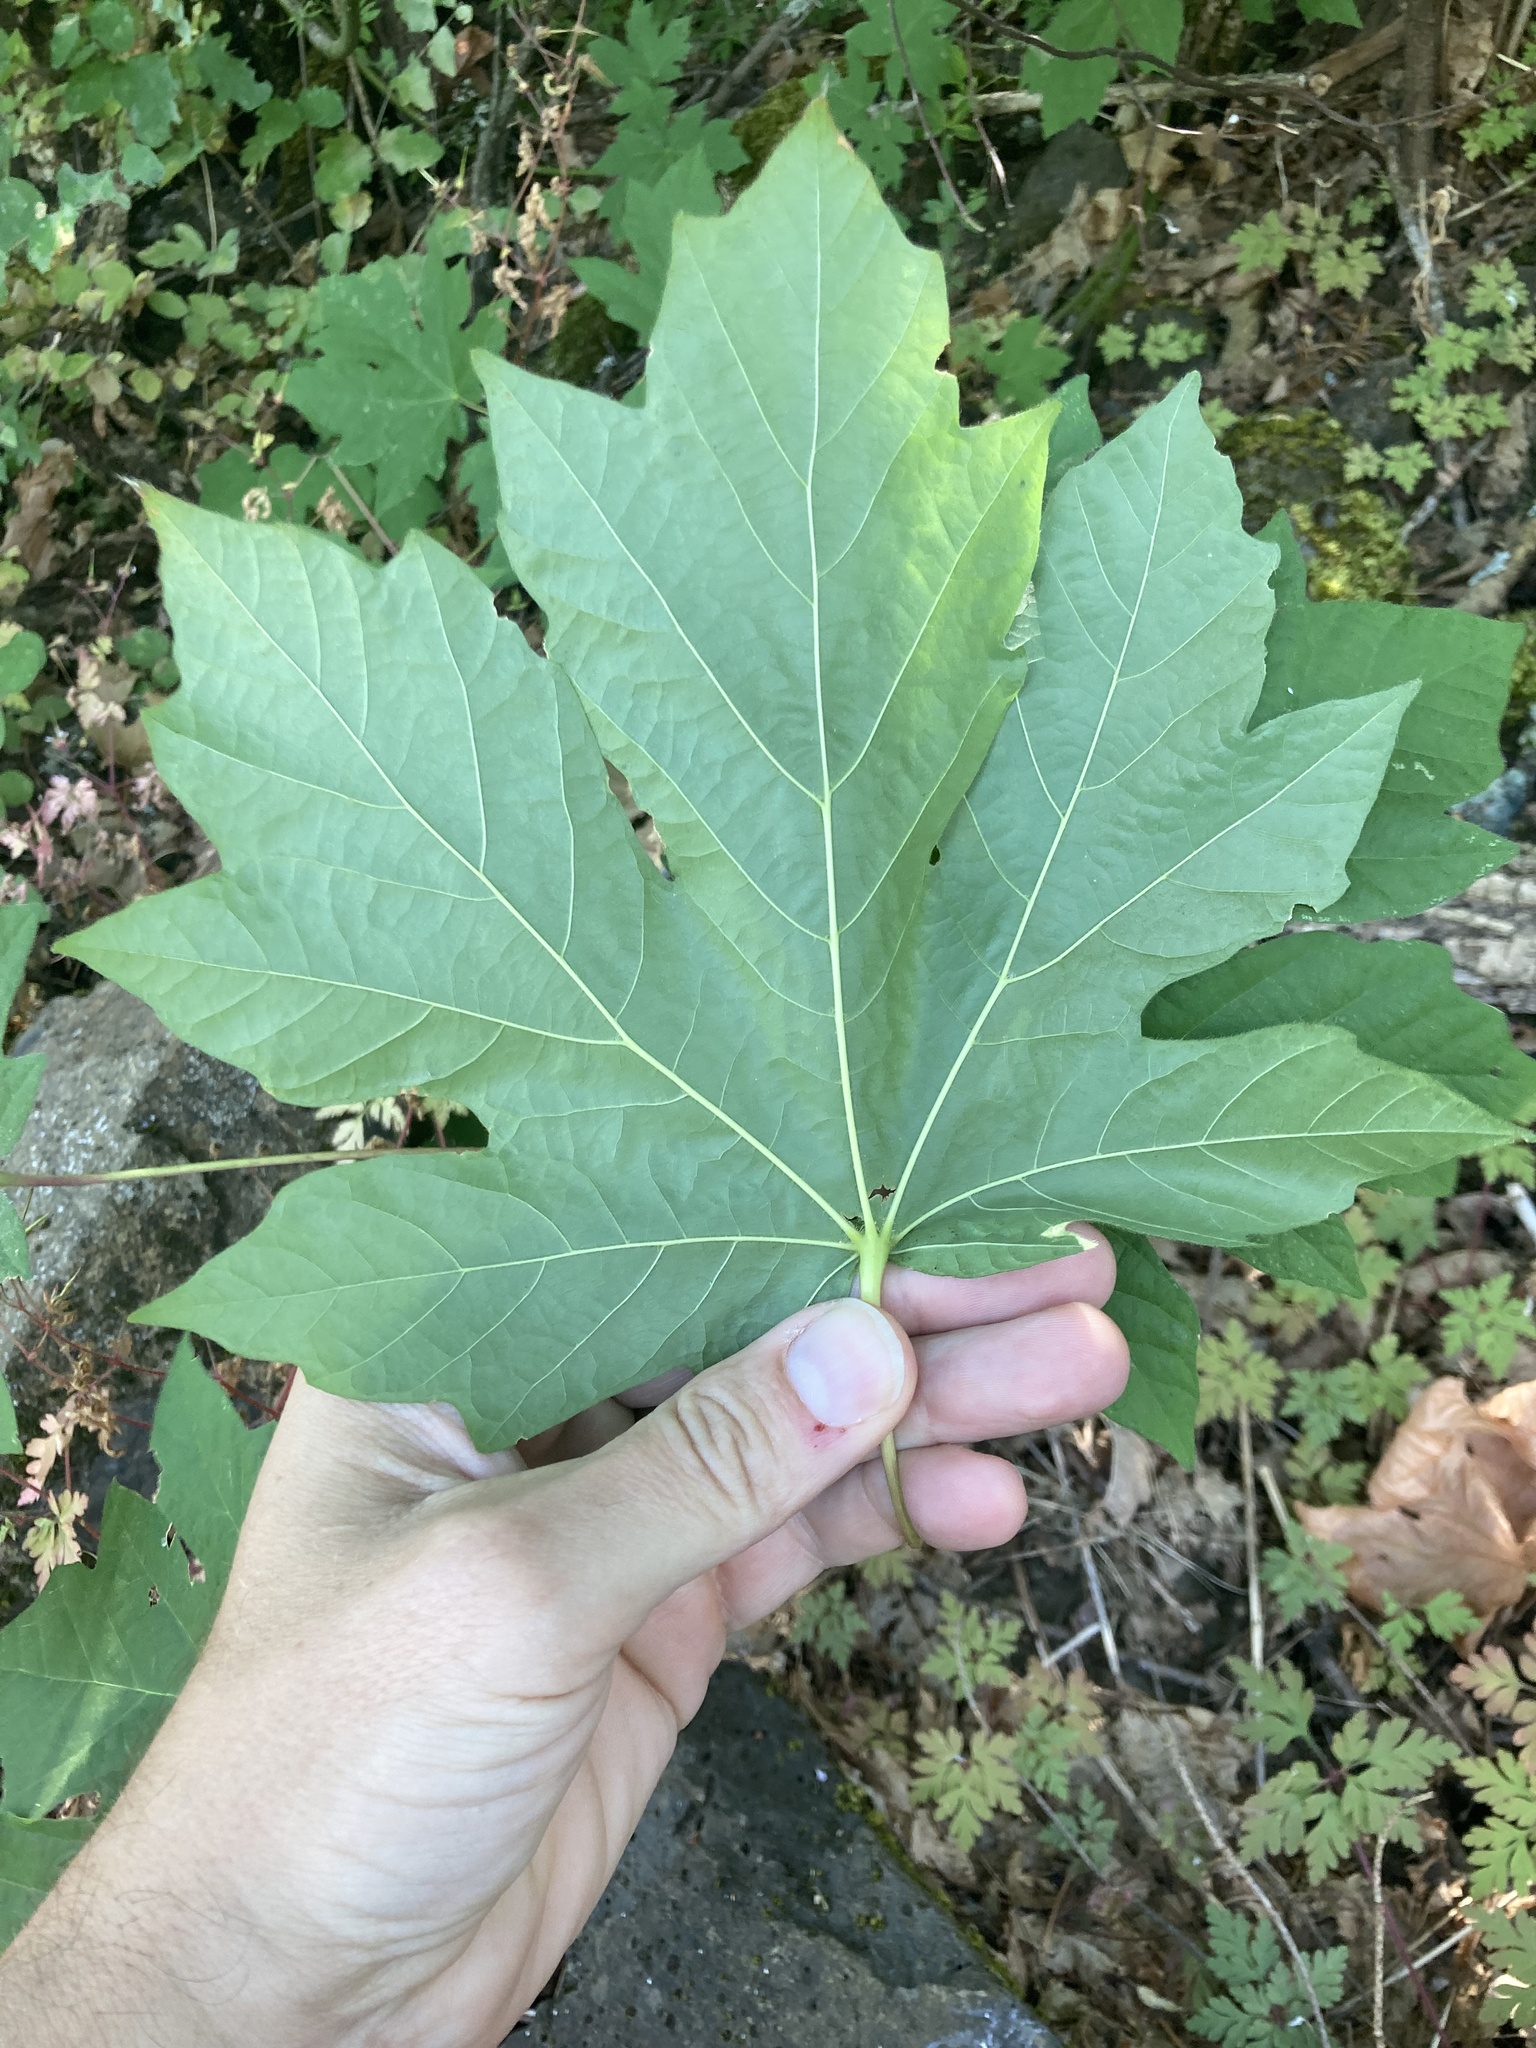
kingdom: Plantae
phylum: Tracheophyta
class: Magnoliopsida
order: Sapindales
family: Sapindaceae
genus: Acer
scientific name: Acer macrophyllum
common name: Oregon maple
